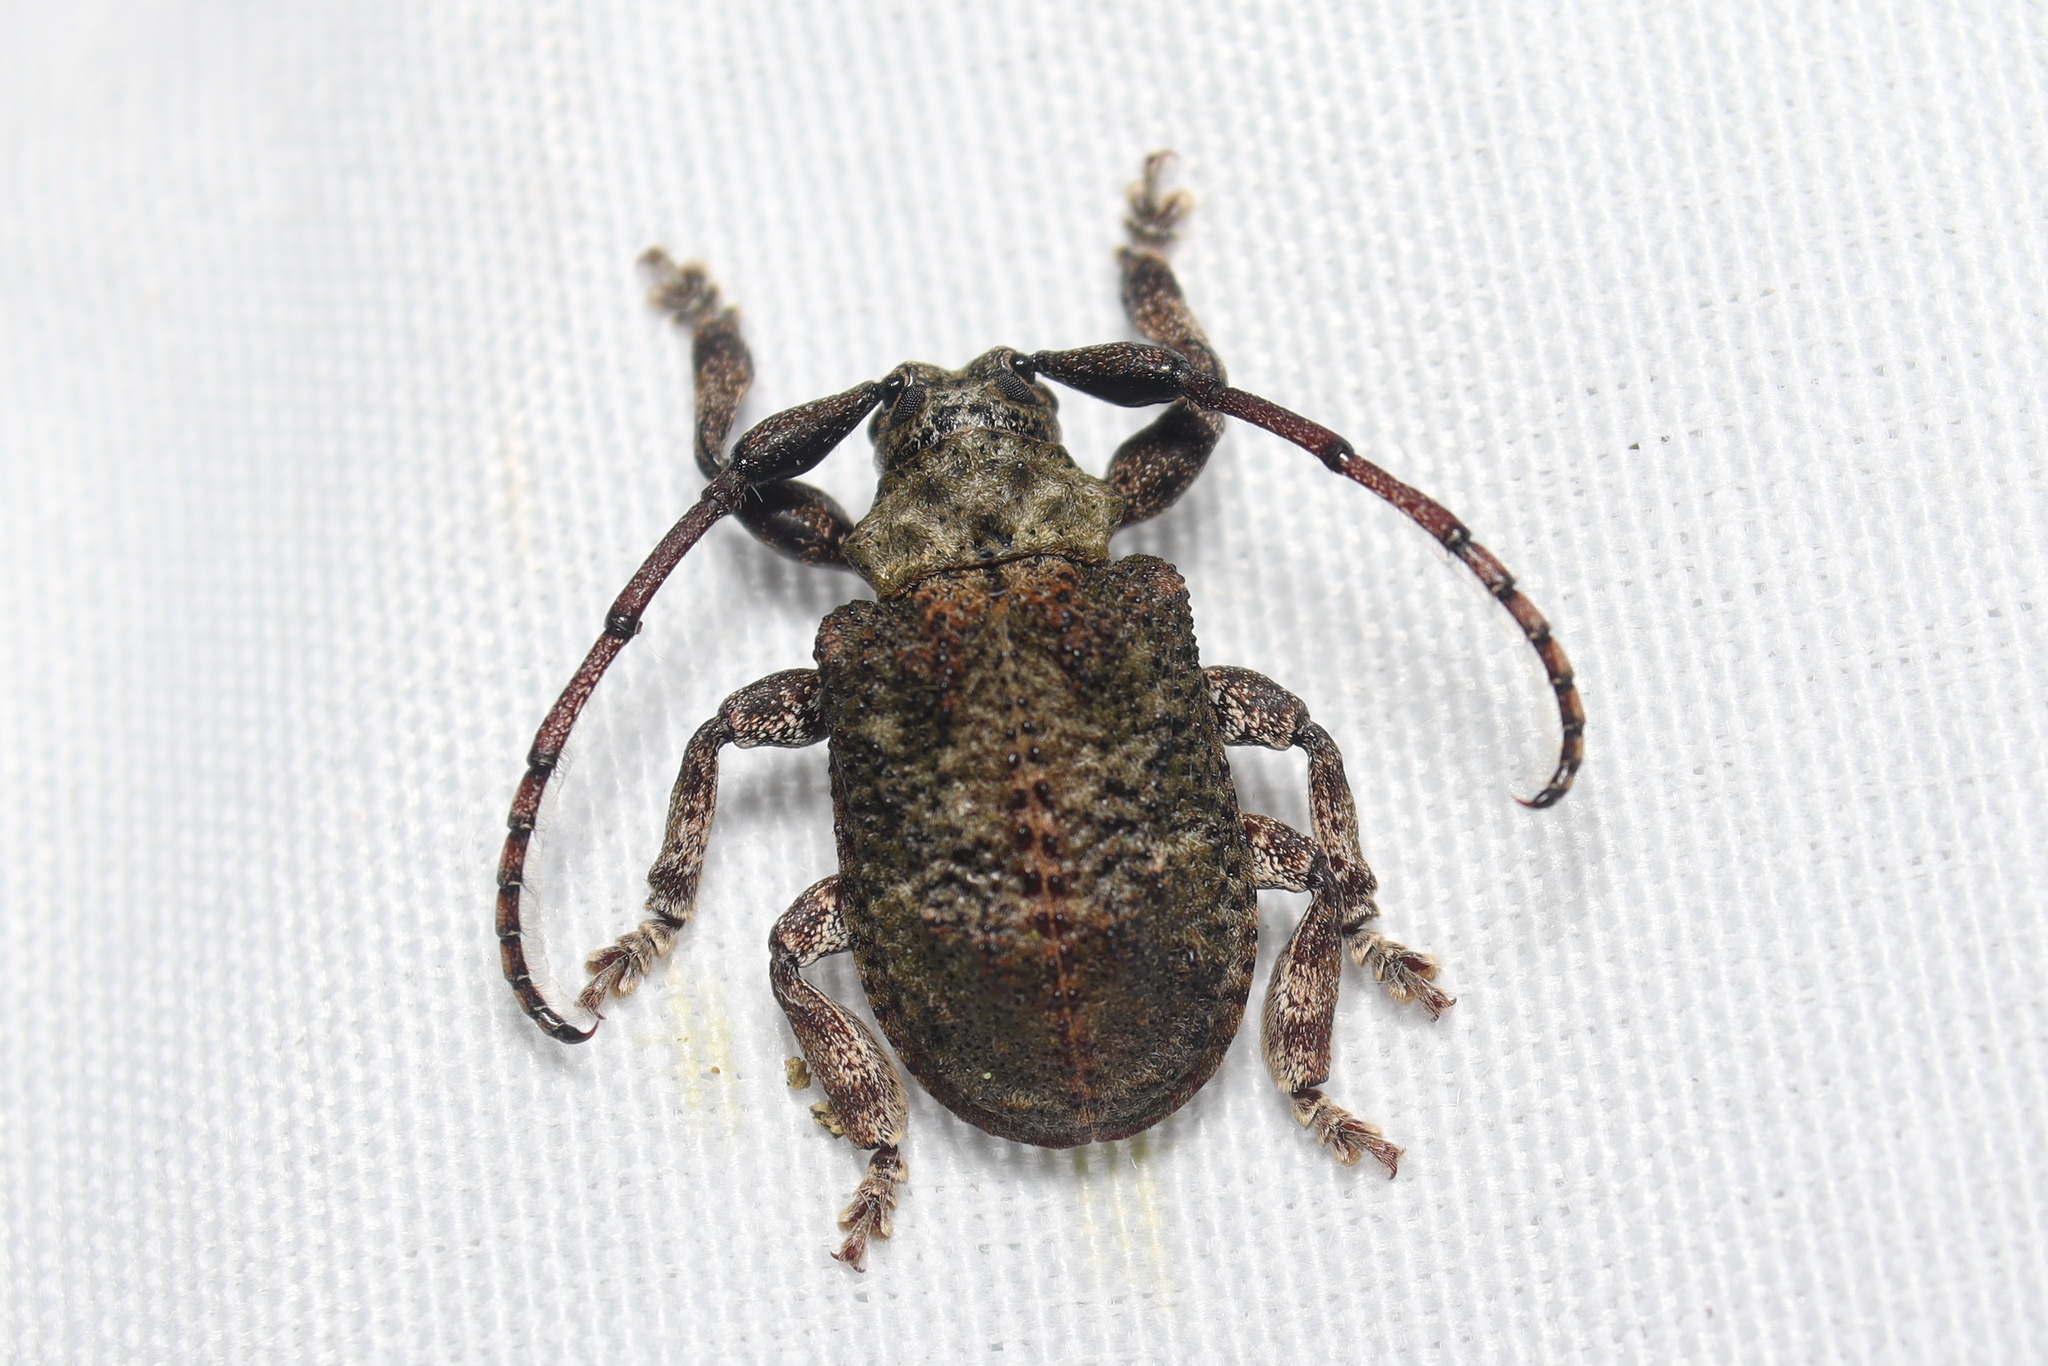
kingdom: Animalia
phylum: Arthropoda
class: Insecta
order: Coleoptera
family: Cerambycidae
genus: Onychocerus
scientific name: Onychocerus aculeicornis
